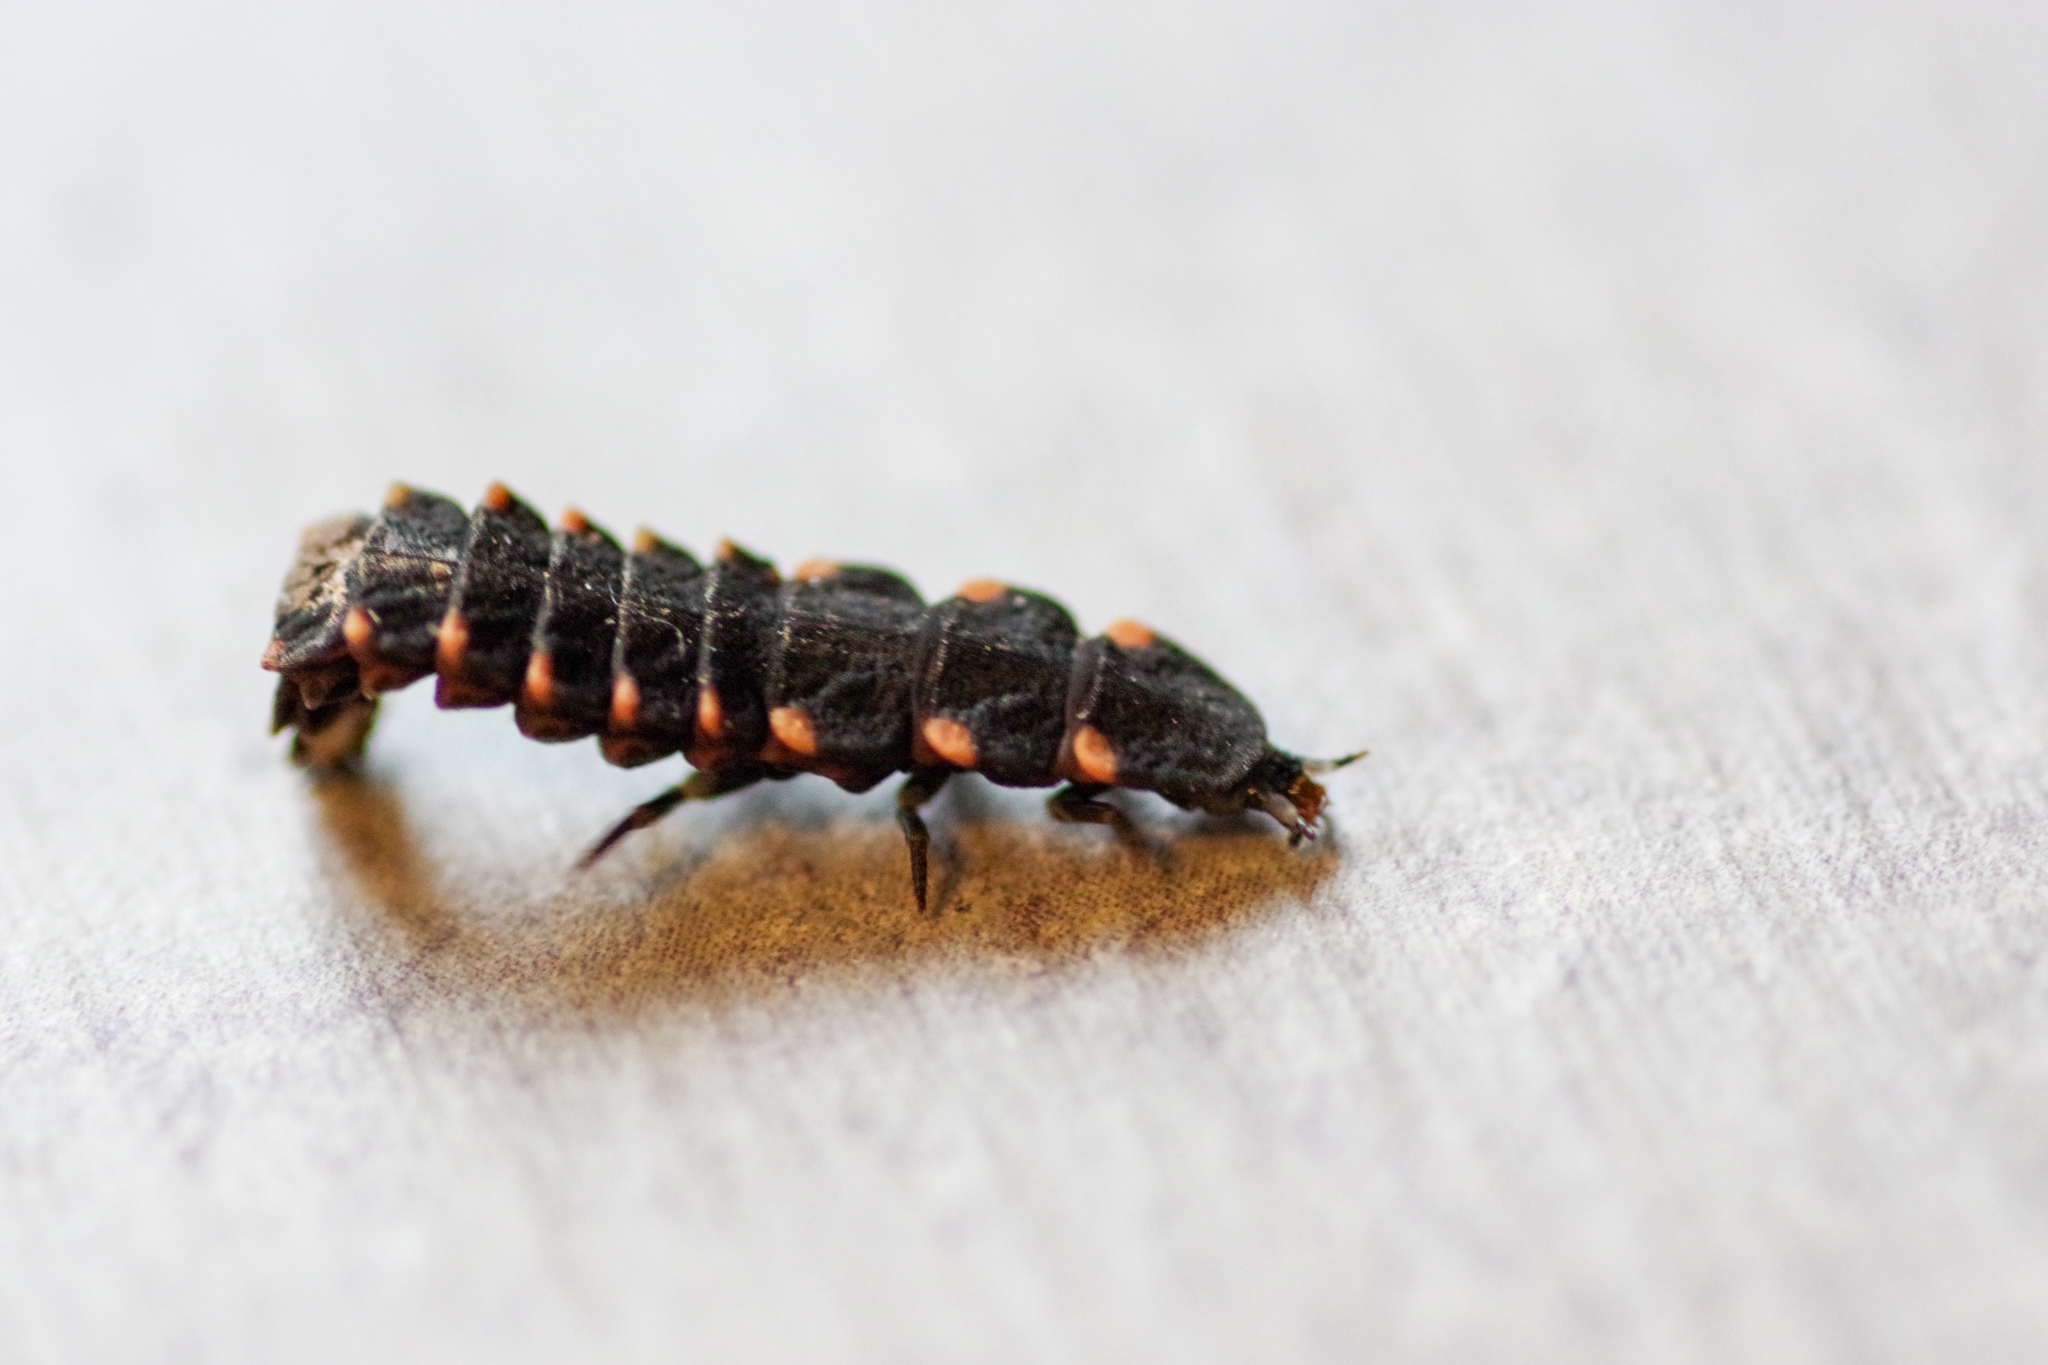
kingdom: Animalia
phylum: Arthropoda
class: Insecta
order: Coleoptera
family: Lampyridae
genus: Lampyris
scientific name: Lampyris noctiluca
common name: Glow-worm
